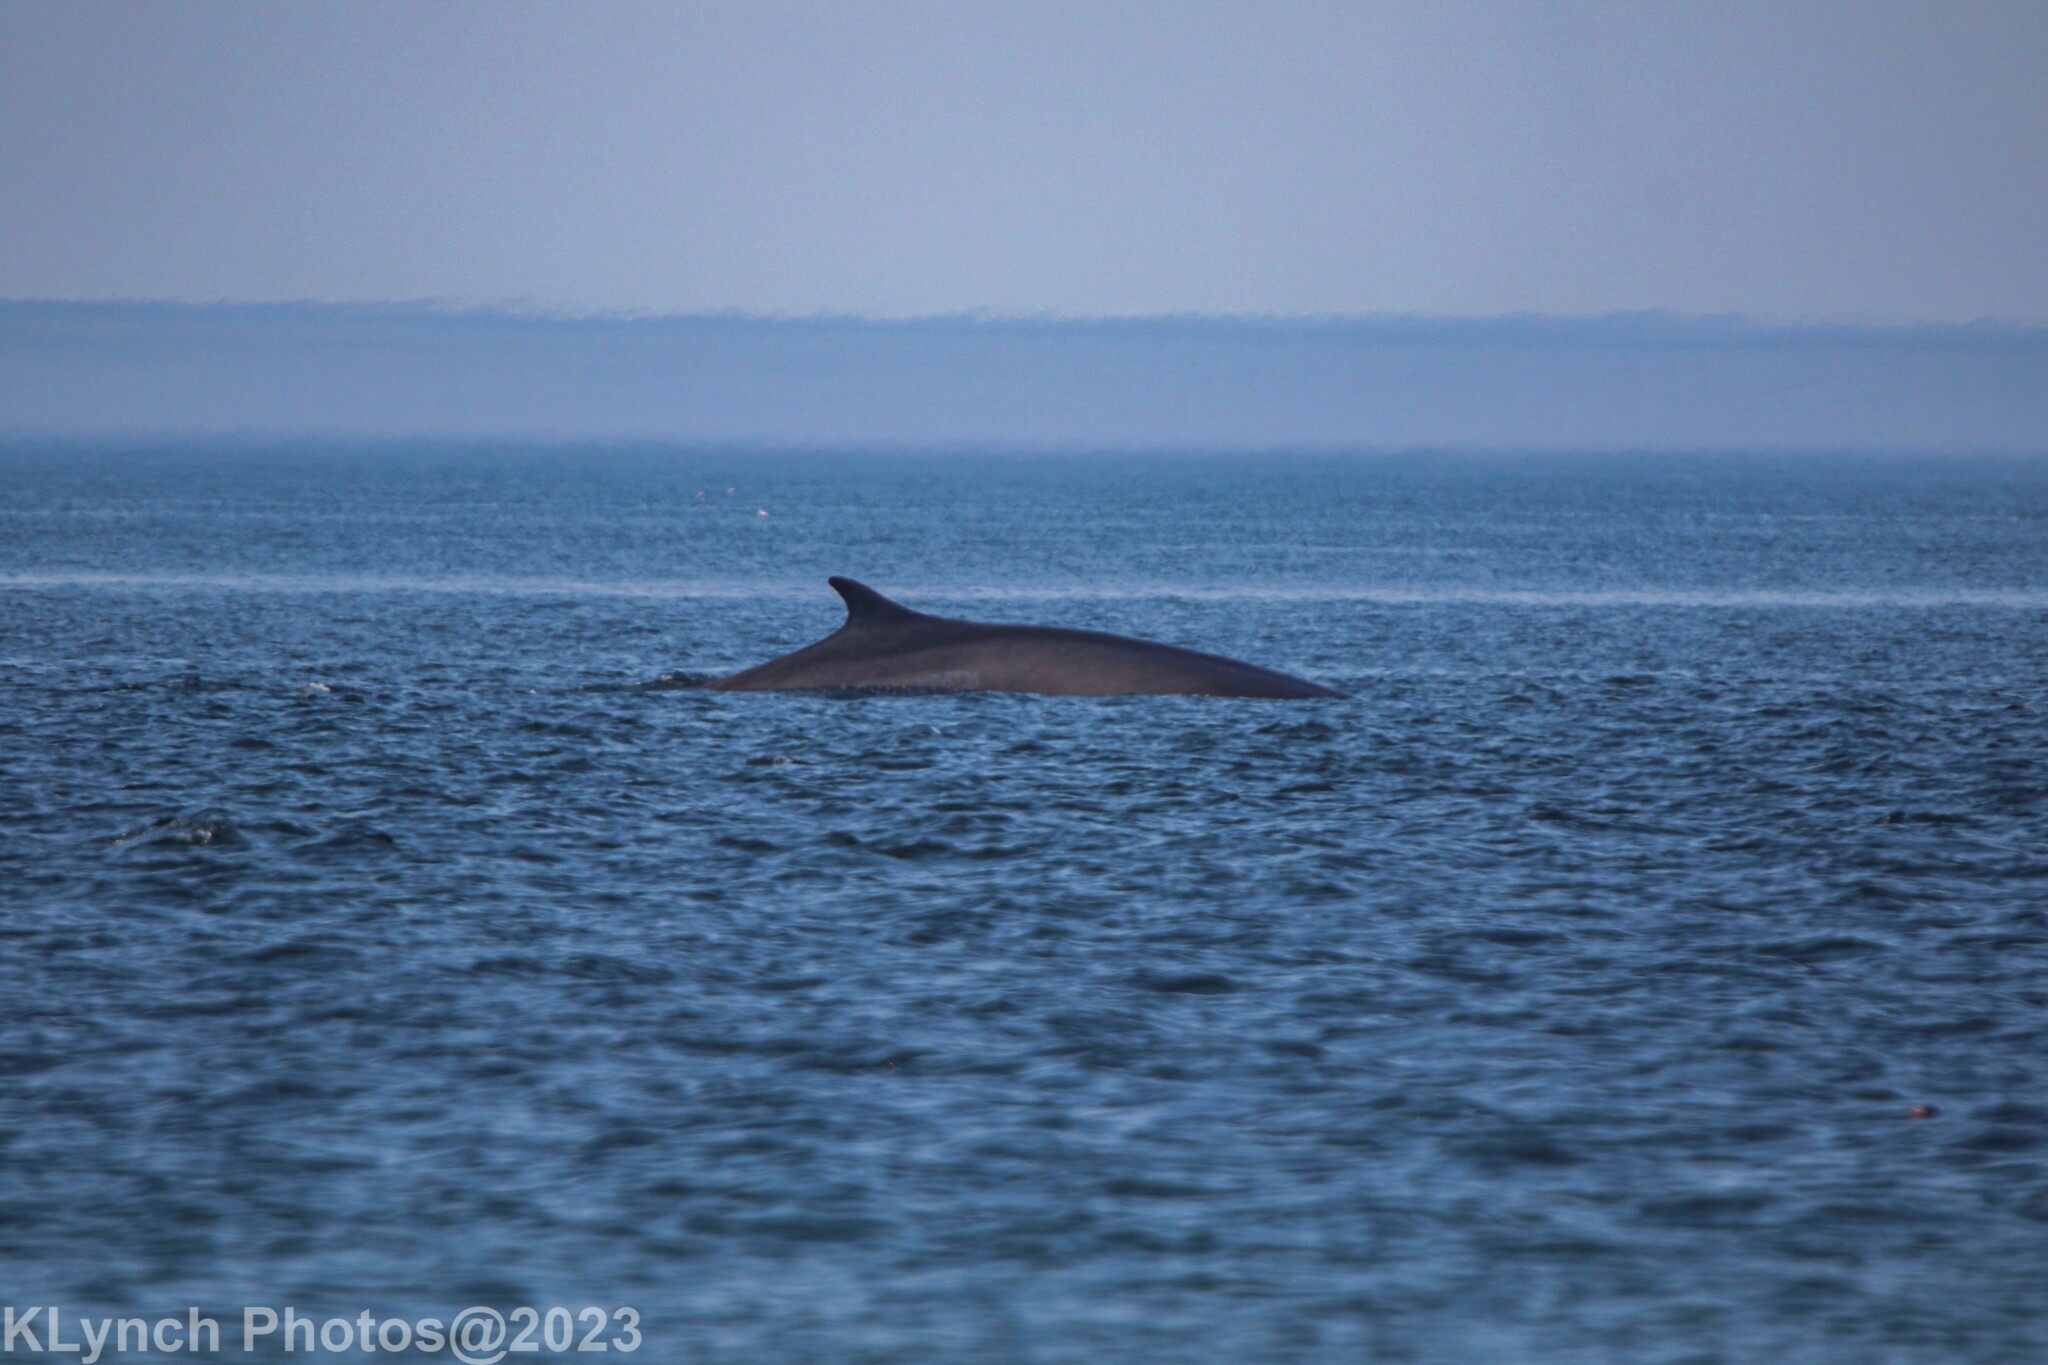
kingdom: Animalia
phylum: Chordata
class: Mammalia
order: Cetacea
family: Balaenopteridae
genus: Balaenoptera
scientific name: Balaenoptera physalus
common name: Fin whale
